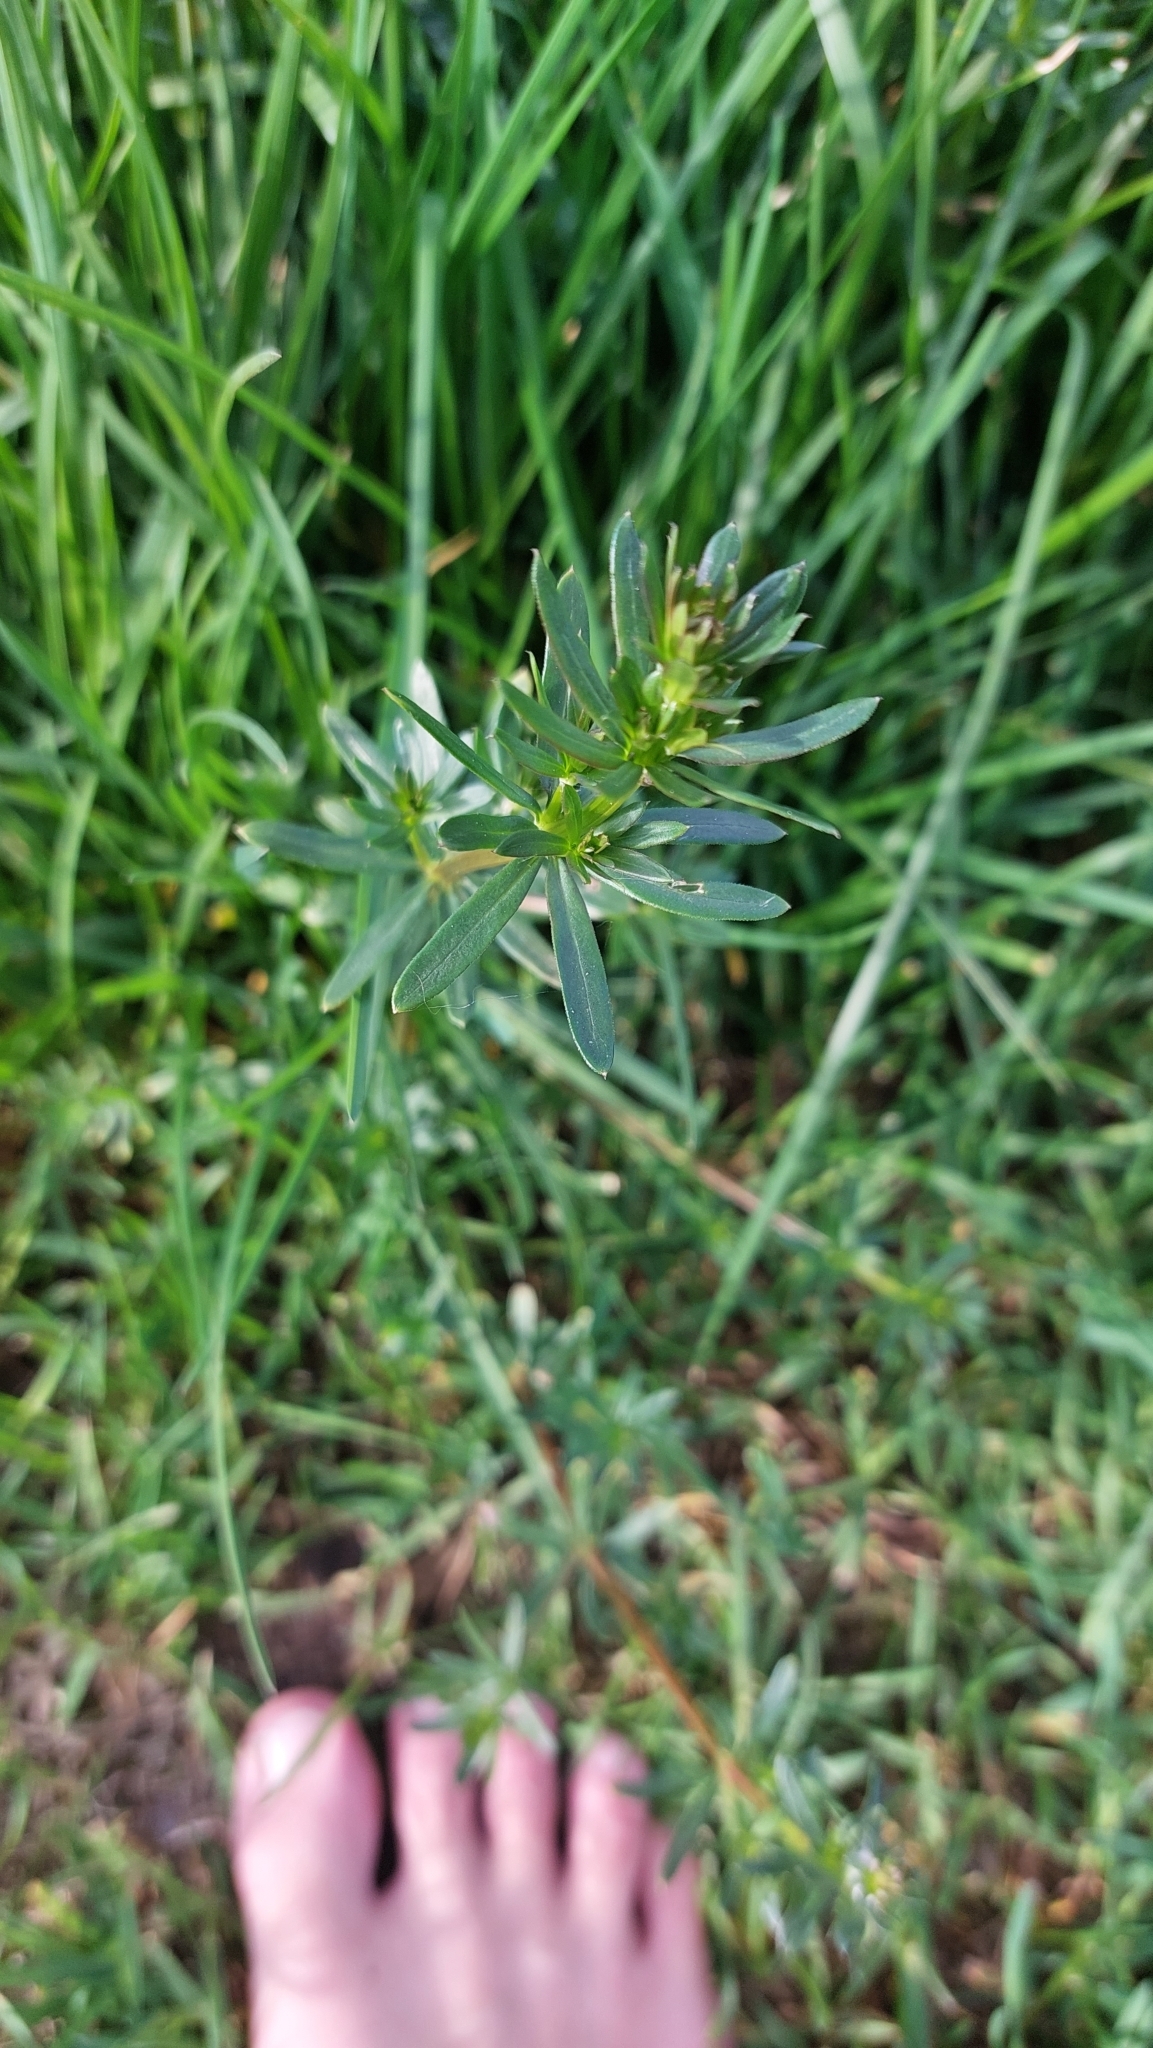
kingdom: Plantae
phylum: Tracheophyta
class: Magnoliopsida
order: Gentianales
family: Rubiaceae
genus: Galium
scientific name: Galium album
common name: White bedstraw
